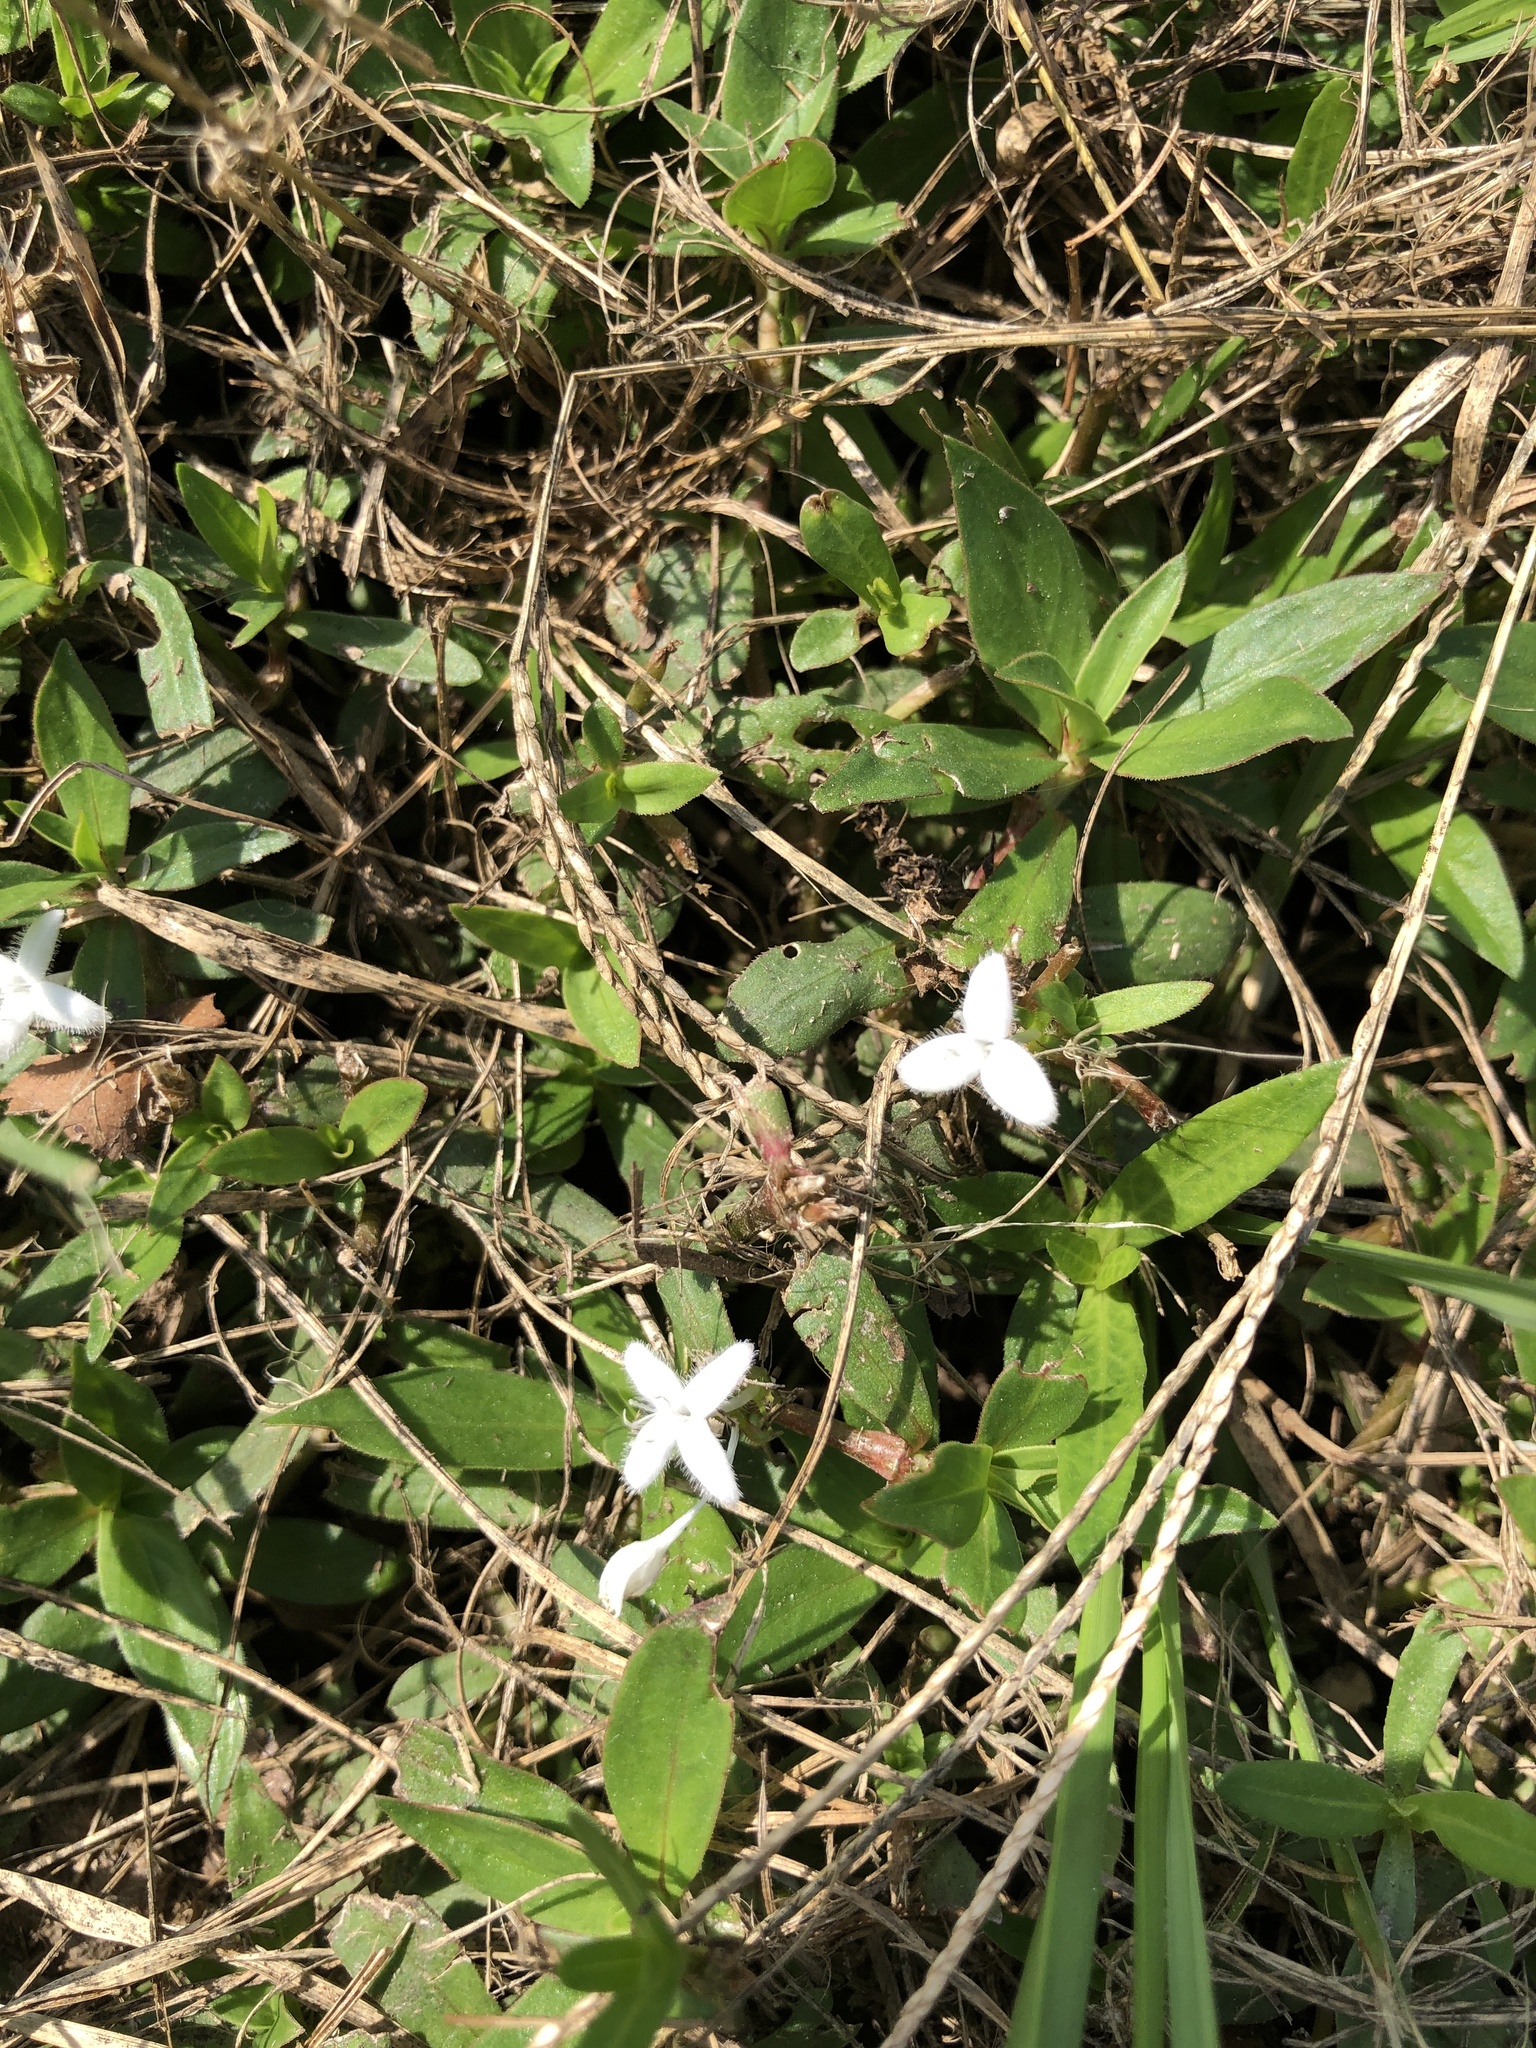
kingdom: Plantae
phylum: Tracheophyta
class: Magnoliopsida
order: Gentianales
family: Rubiaceae
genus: Diodia
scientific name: Diodia virginiana
